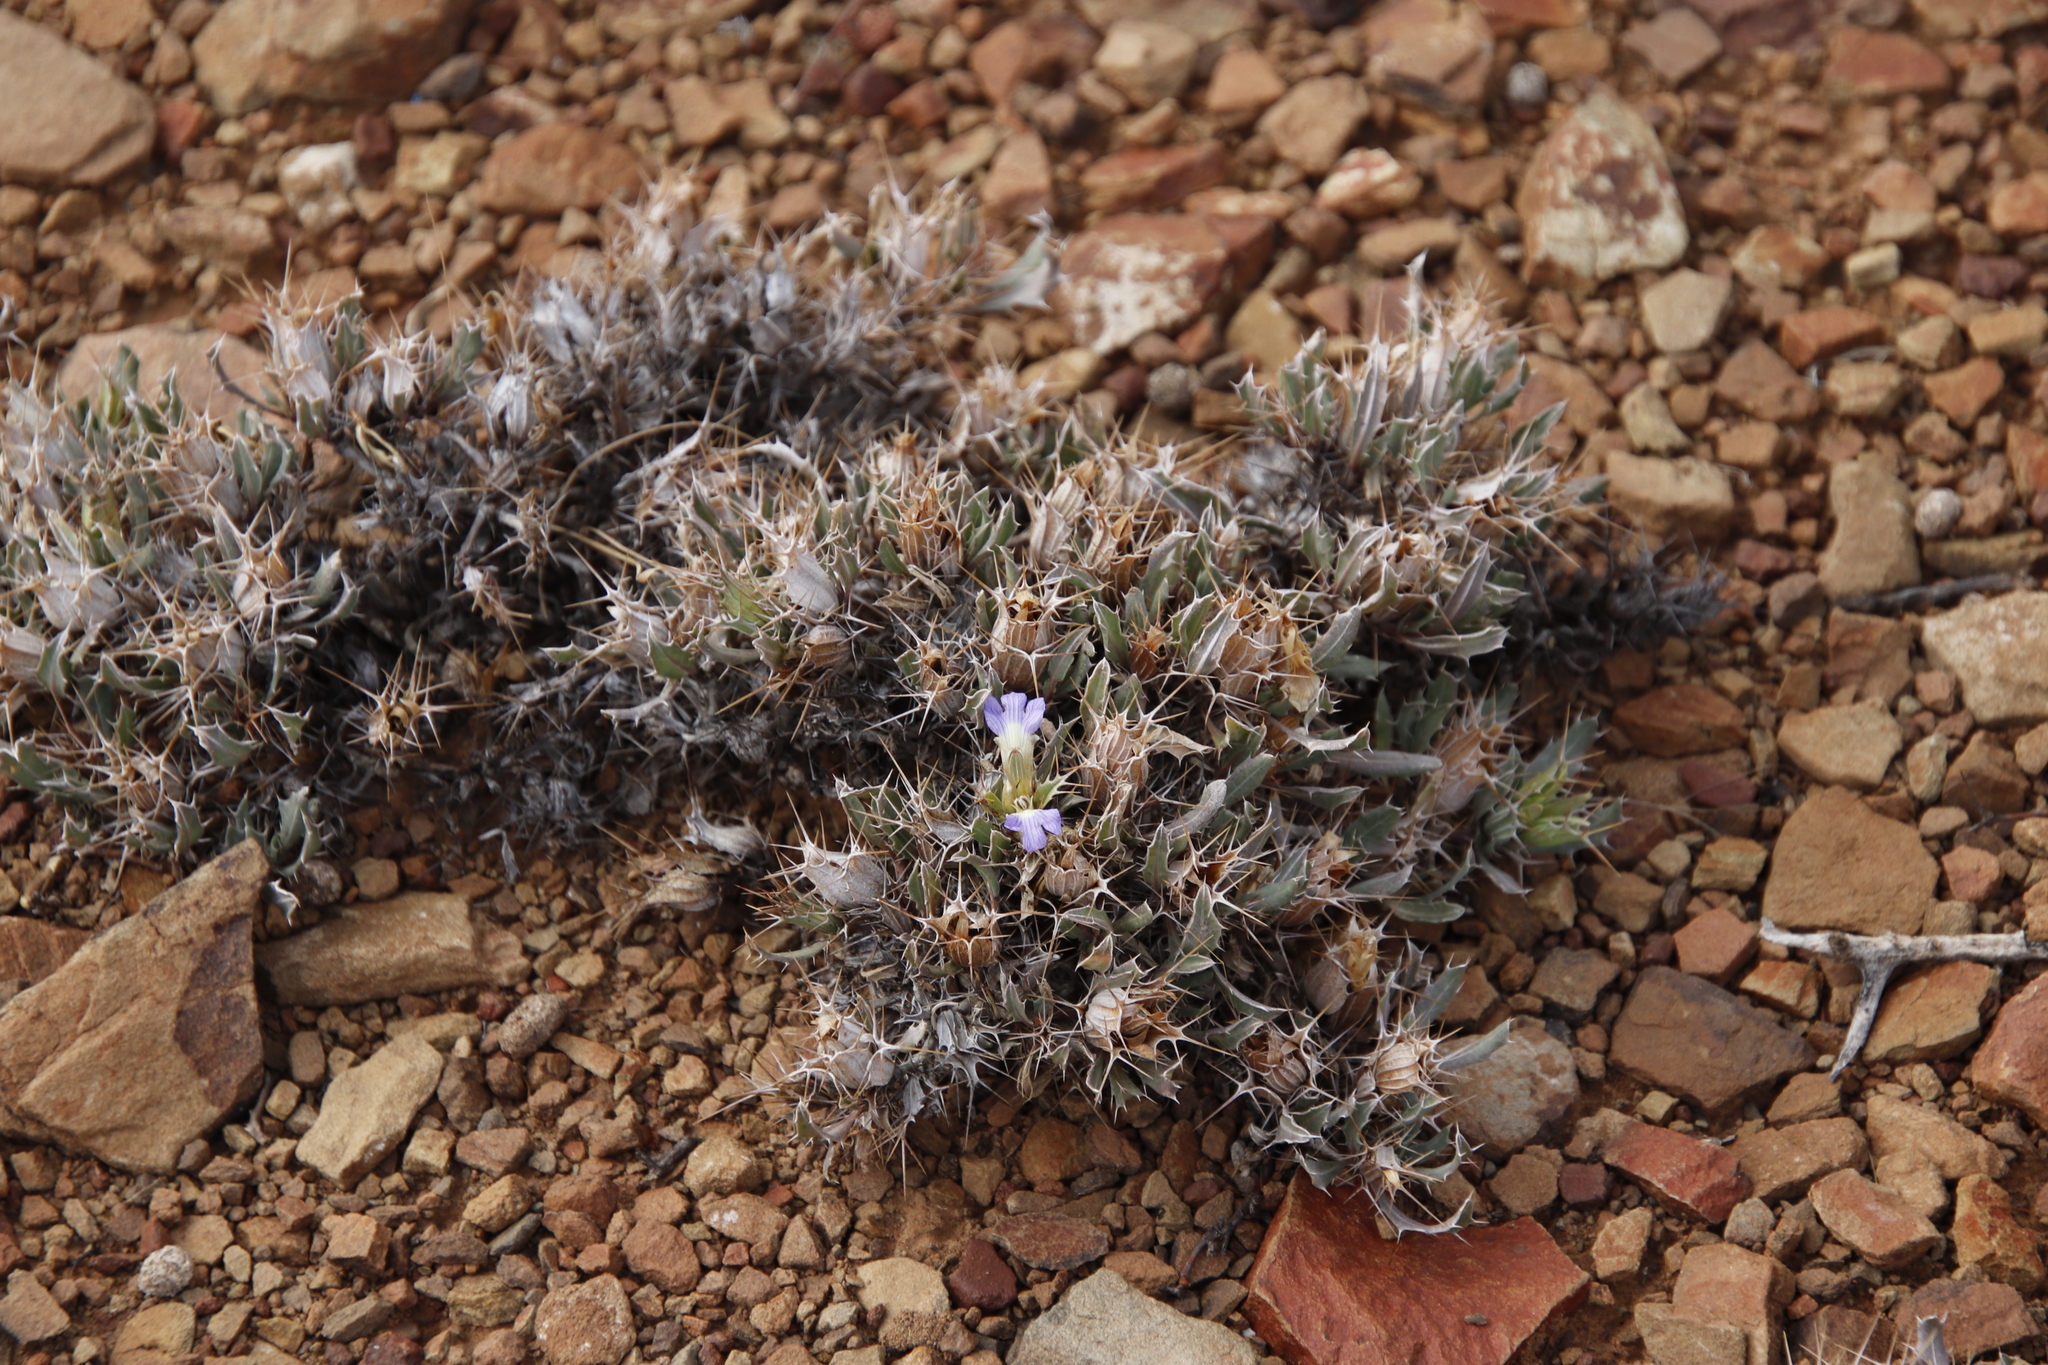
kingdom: Plantae
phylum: Tracheophyta
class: Magnoliopsida
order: Lamiales
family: Acanthaceae
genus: Blepharis
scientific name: Blepharis mitrata
